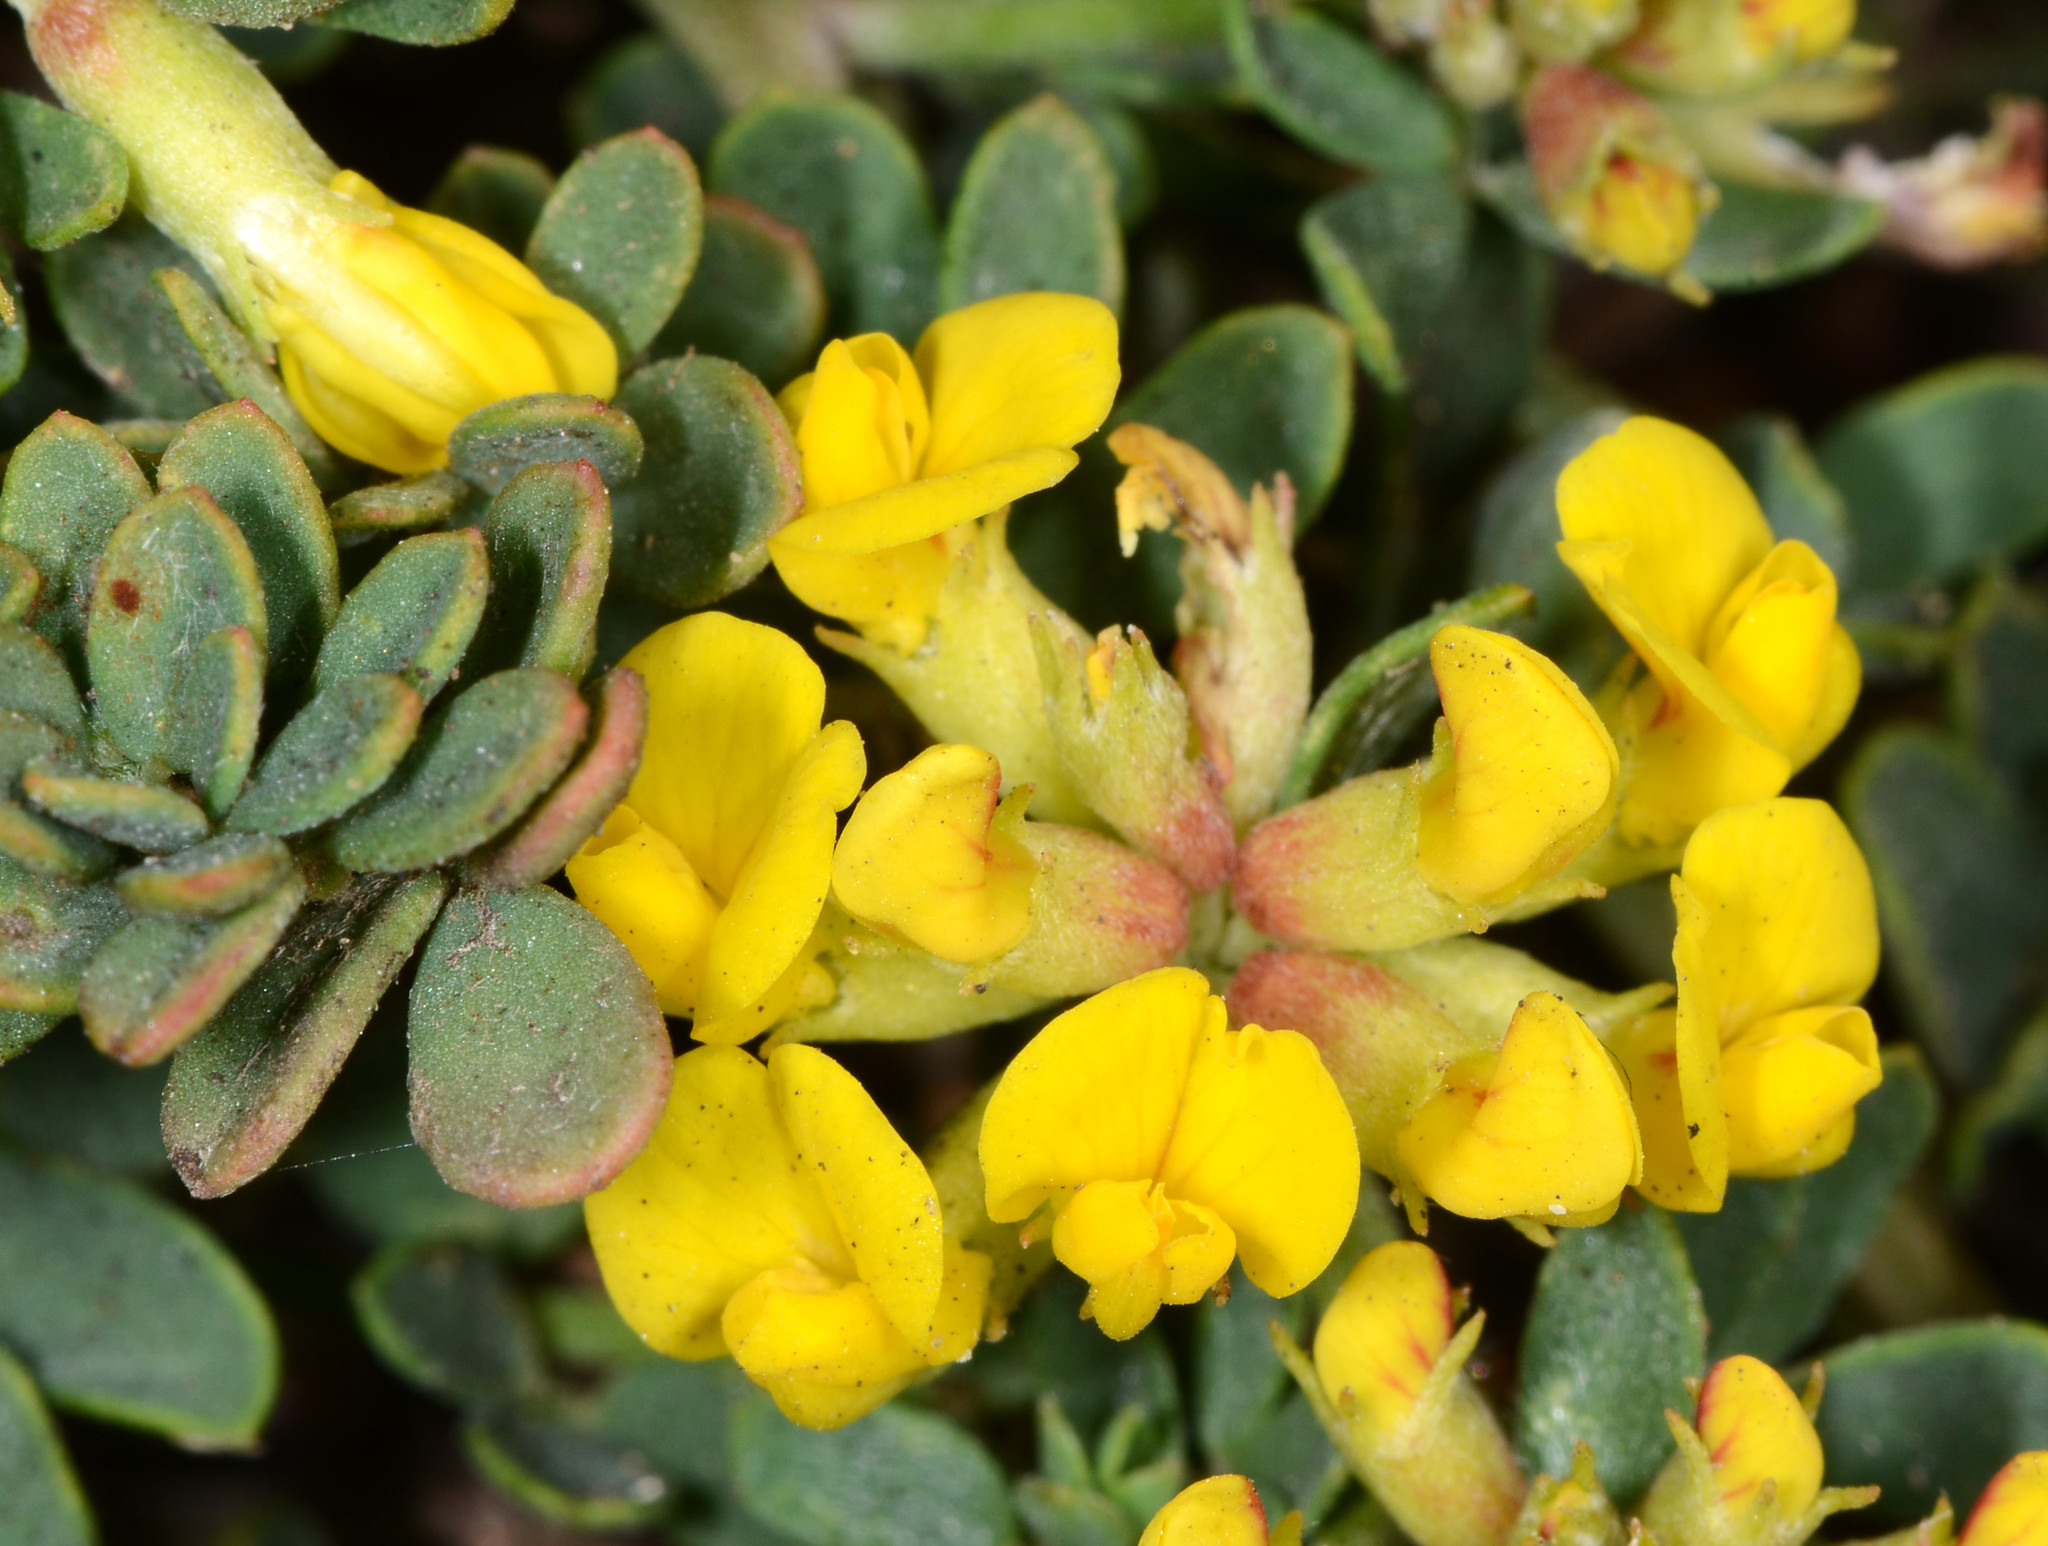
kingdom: Plantae
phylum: Tracheophyta
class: Magnoliopsida
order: Fabales
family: Fabaceae
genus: Acmispon
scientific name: Acmispon cytisoides
